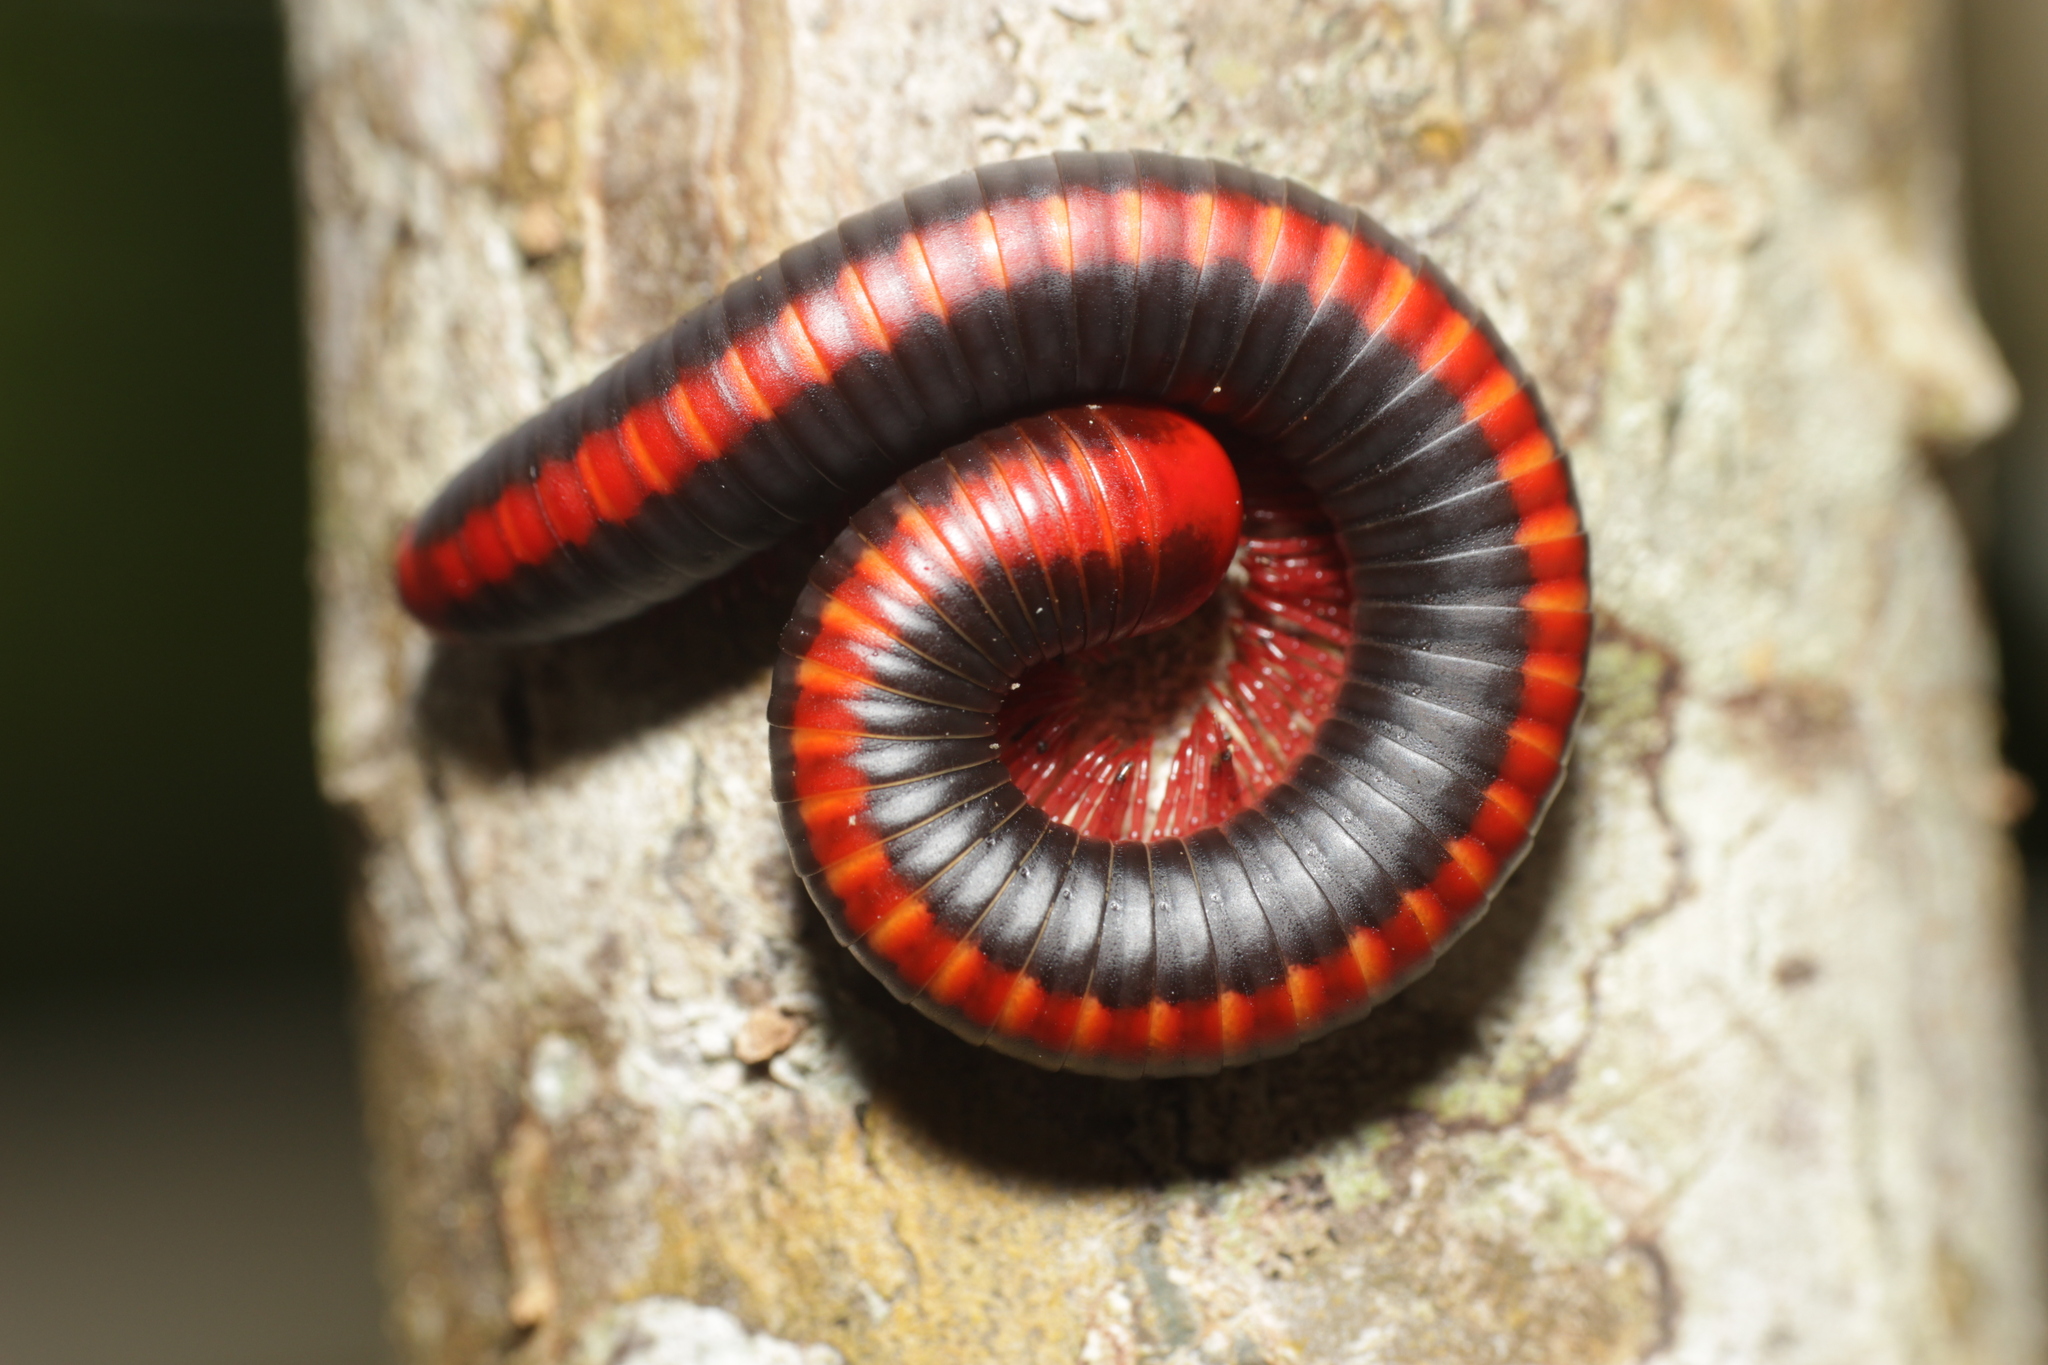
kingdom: Animalia
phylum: Arthropoda
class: Diplopoda
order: Spirobolida
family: Pachybolidae
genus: Xenobolus
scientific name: Xenobolus carnifex
